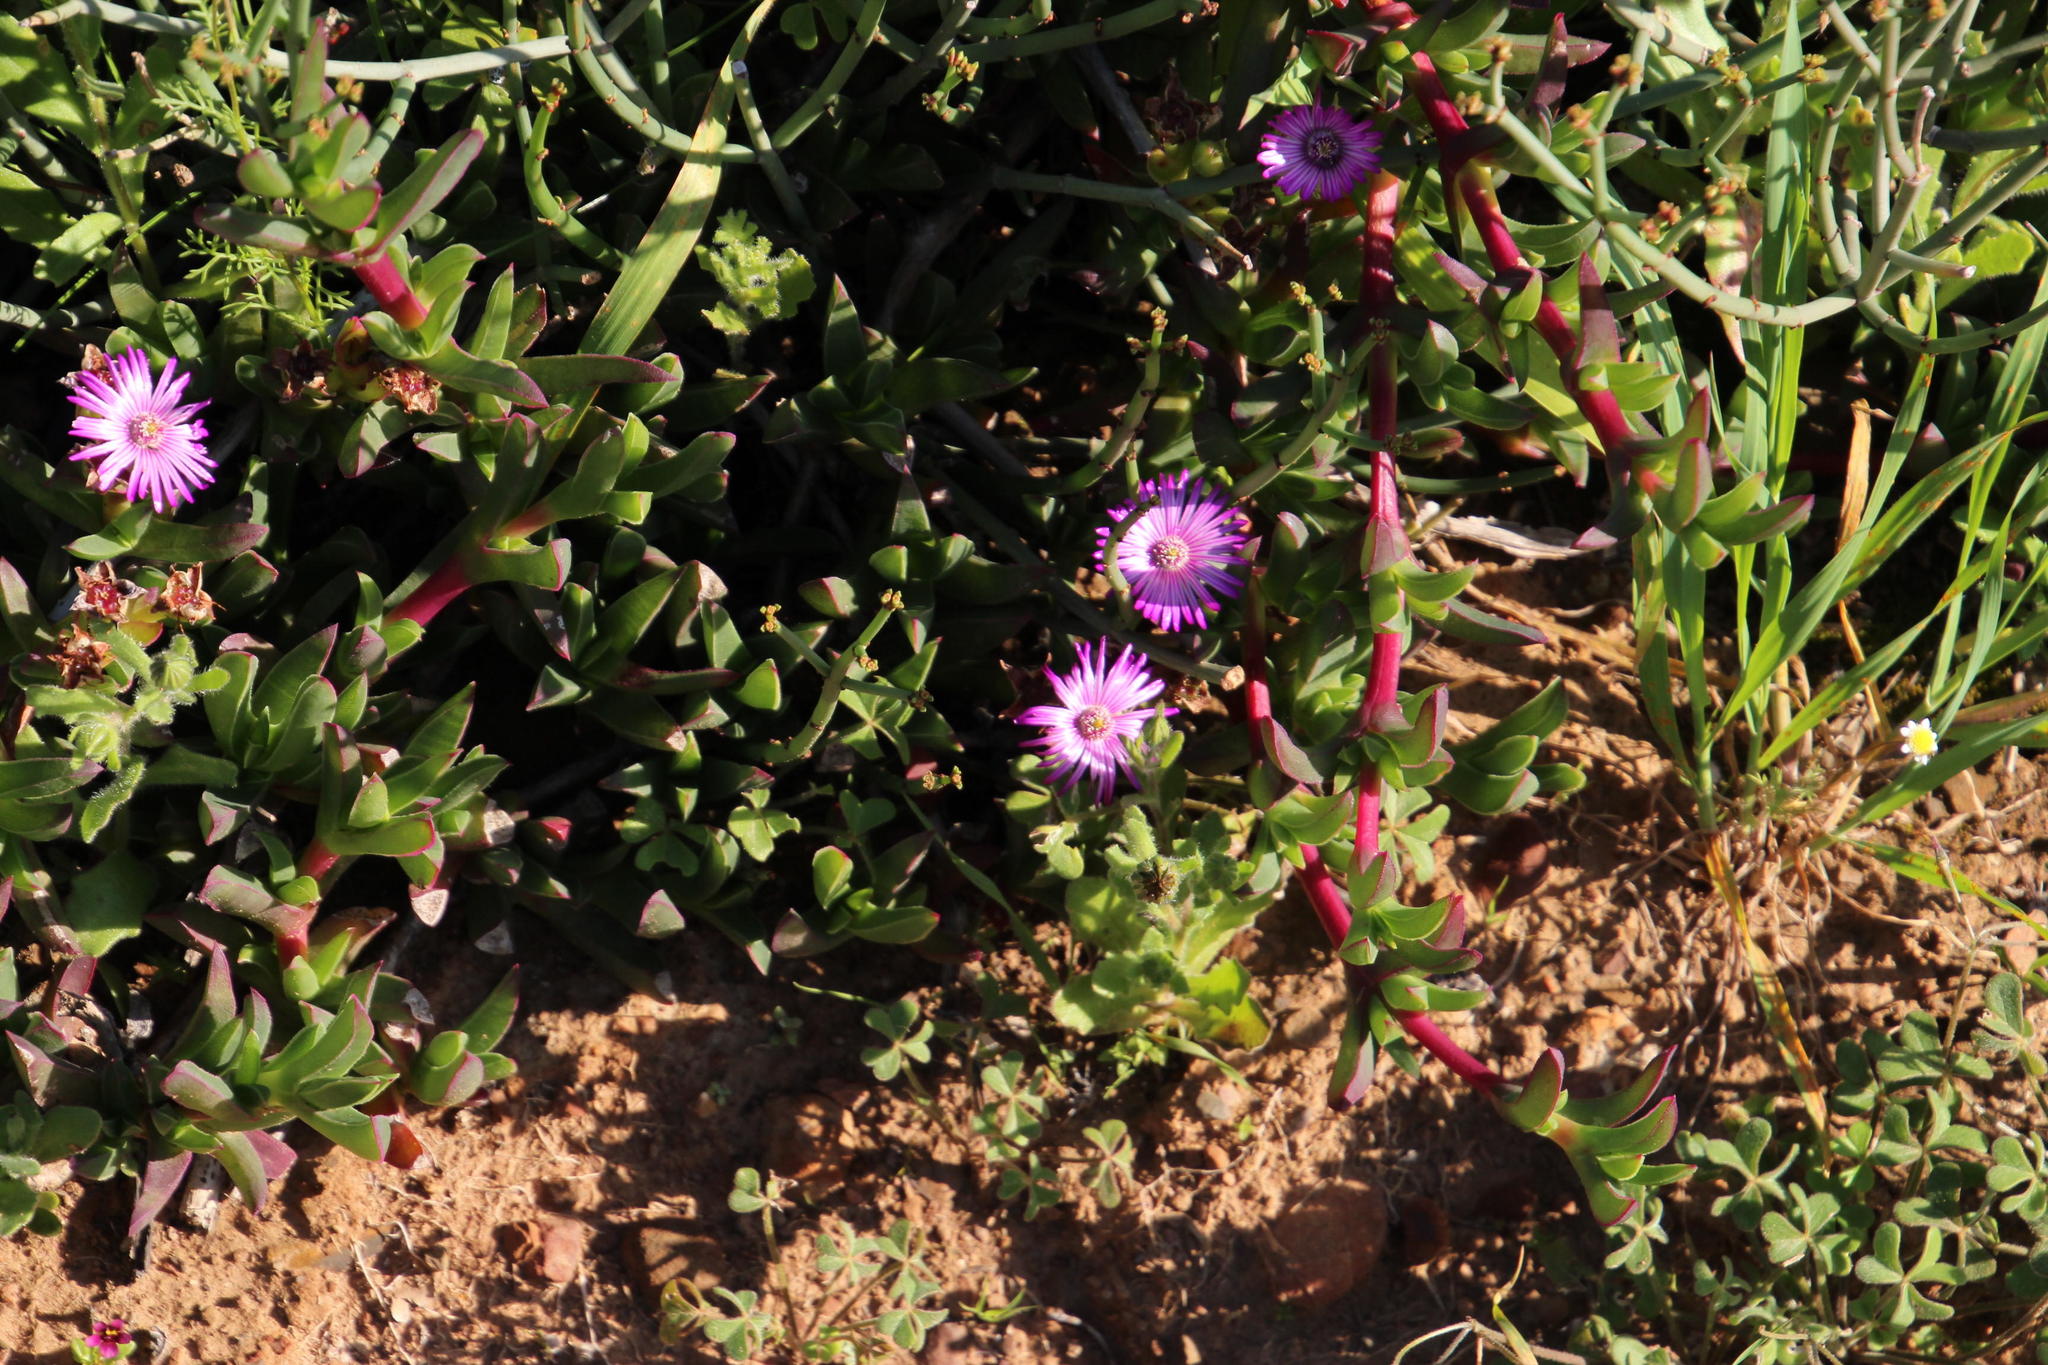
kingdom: Plantae
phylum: Tracheophyta
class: Magnoliopsida
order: Caryophyllales
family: Aizoaceae
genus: Ruschia
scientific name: Ruschia sarmentosa
